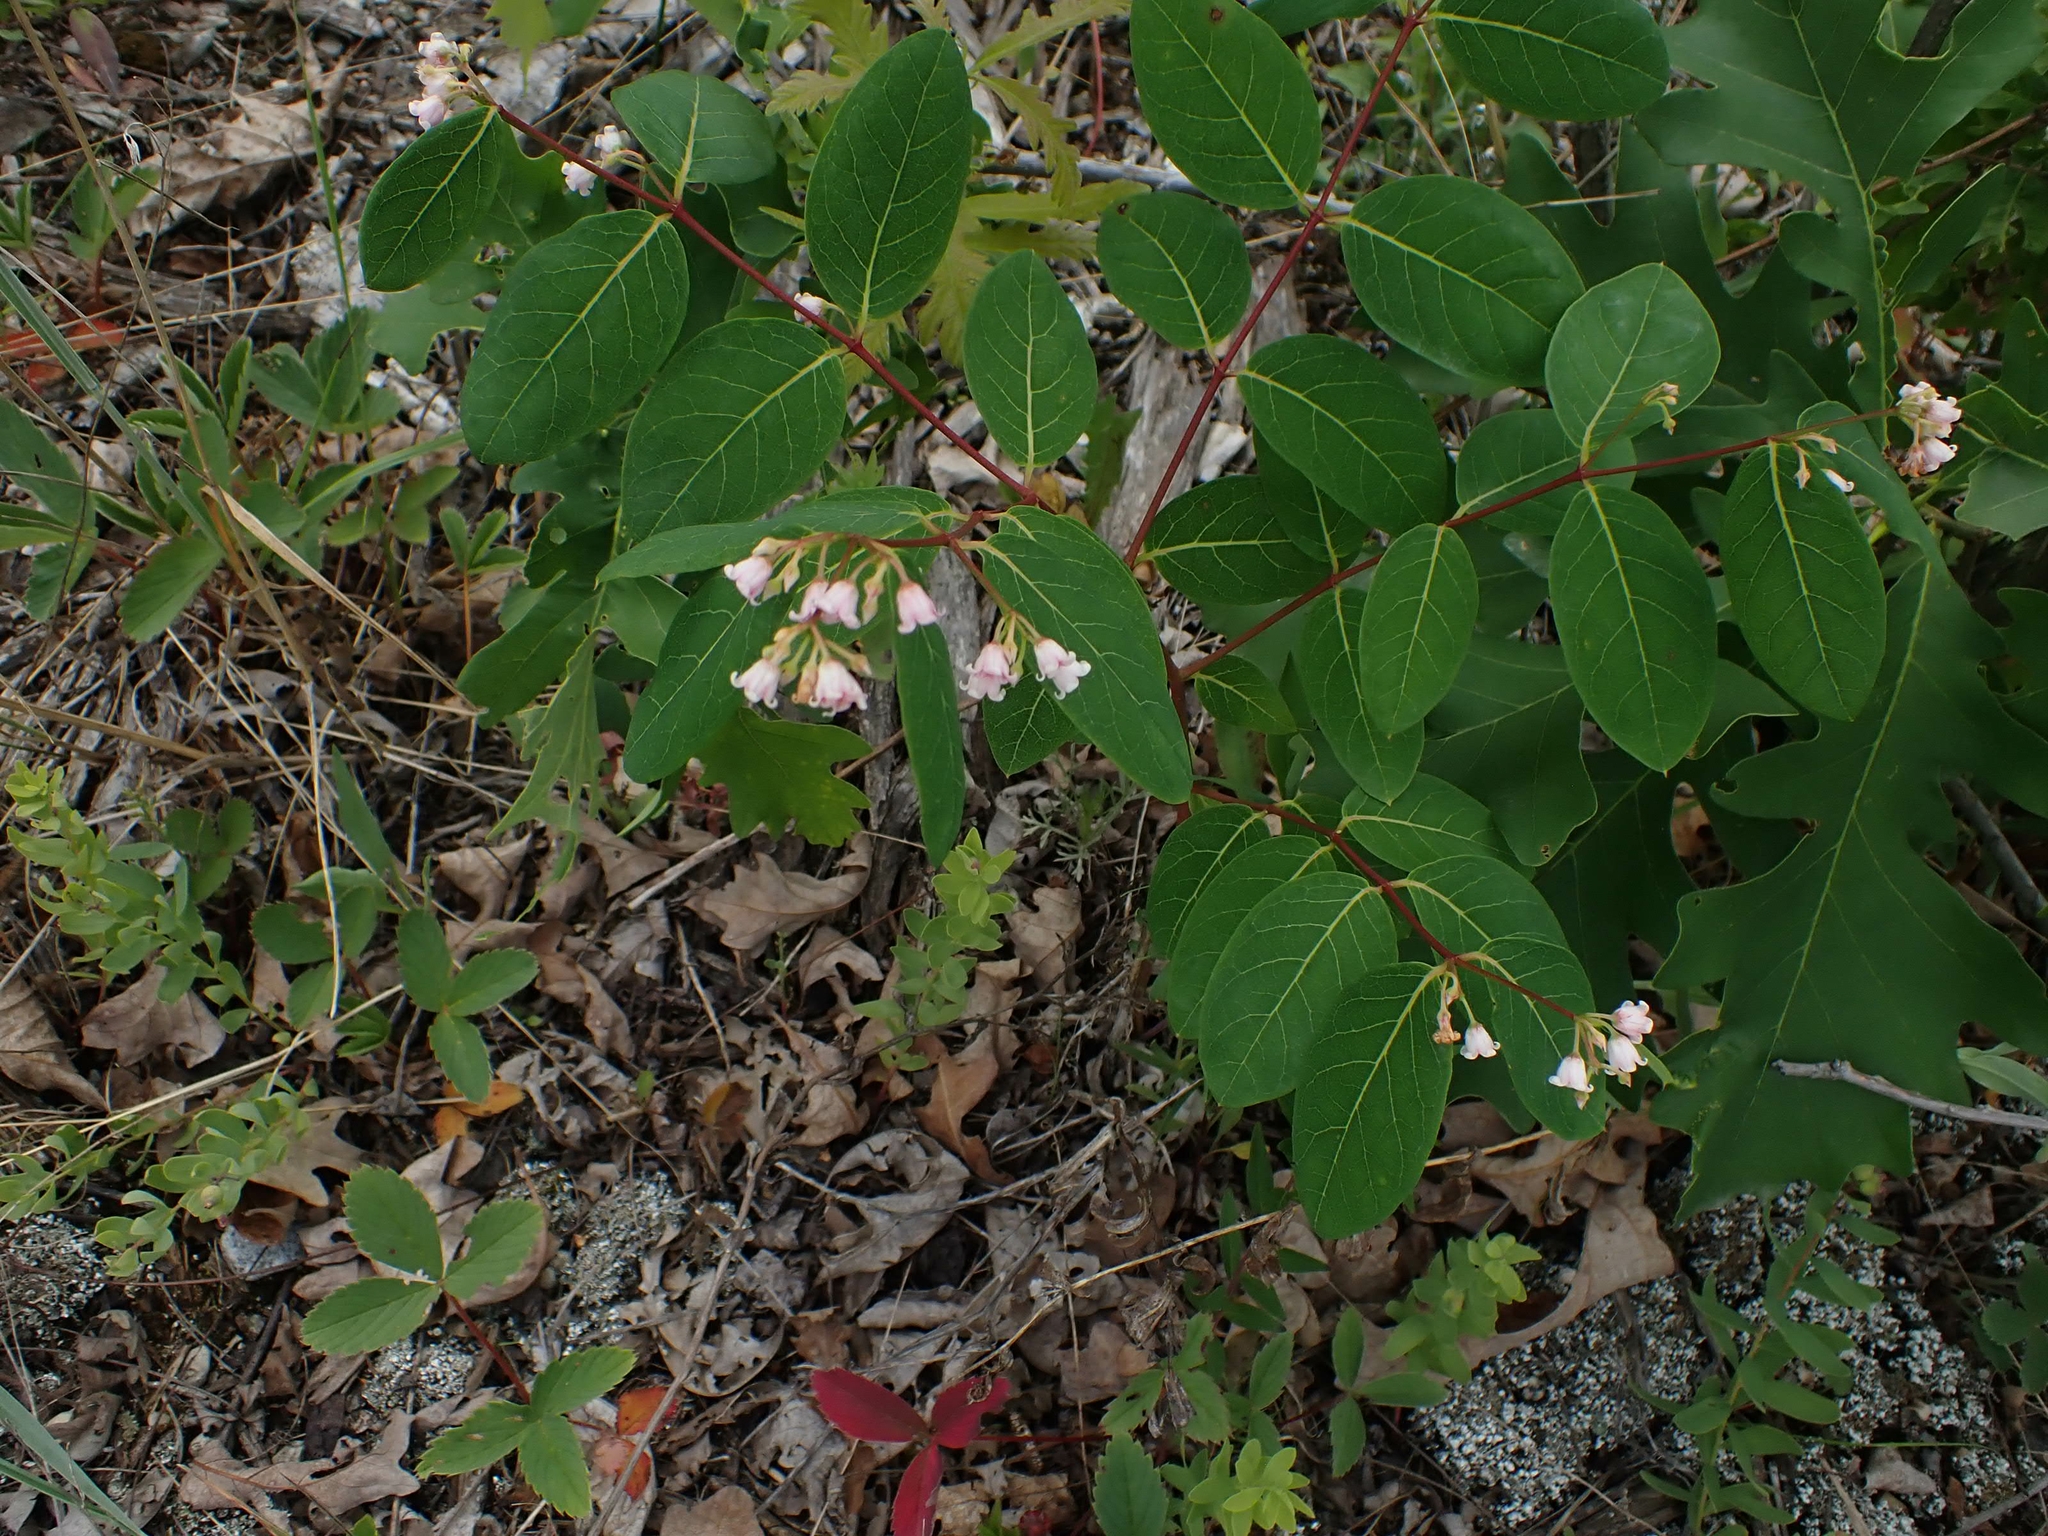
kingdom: Plantae
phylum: Tracheophyta
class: Magnoliopsida
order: Gentianales
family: Apocynaceae
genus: Apocynum
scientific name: Apocynum androsaemifolium
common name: Spreading dogbane
